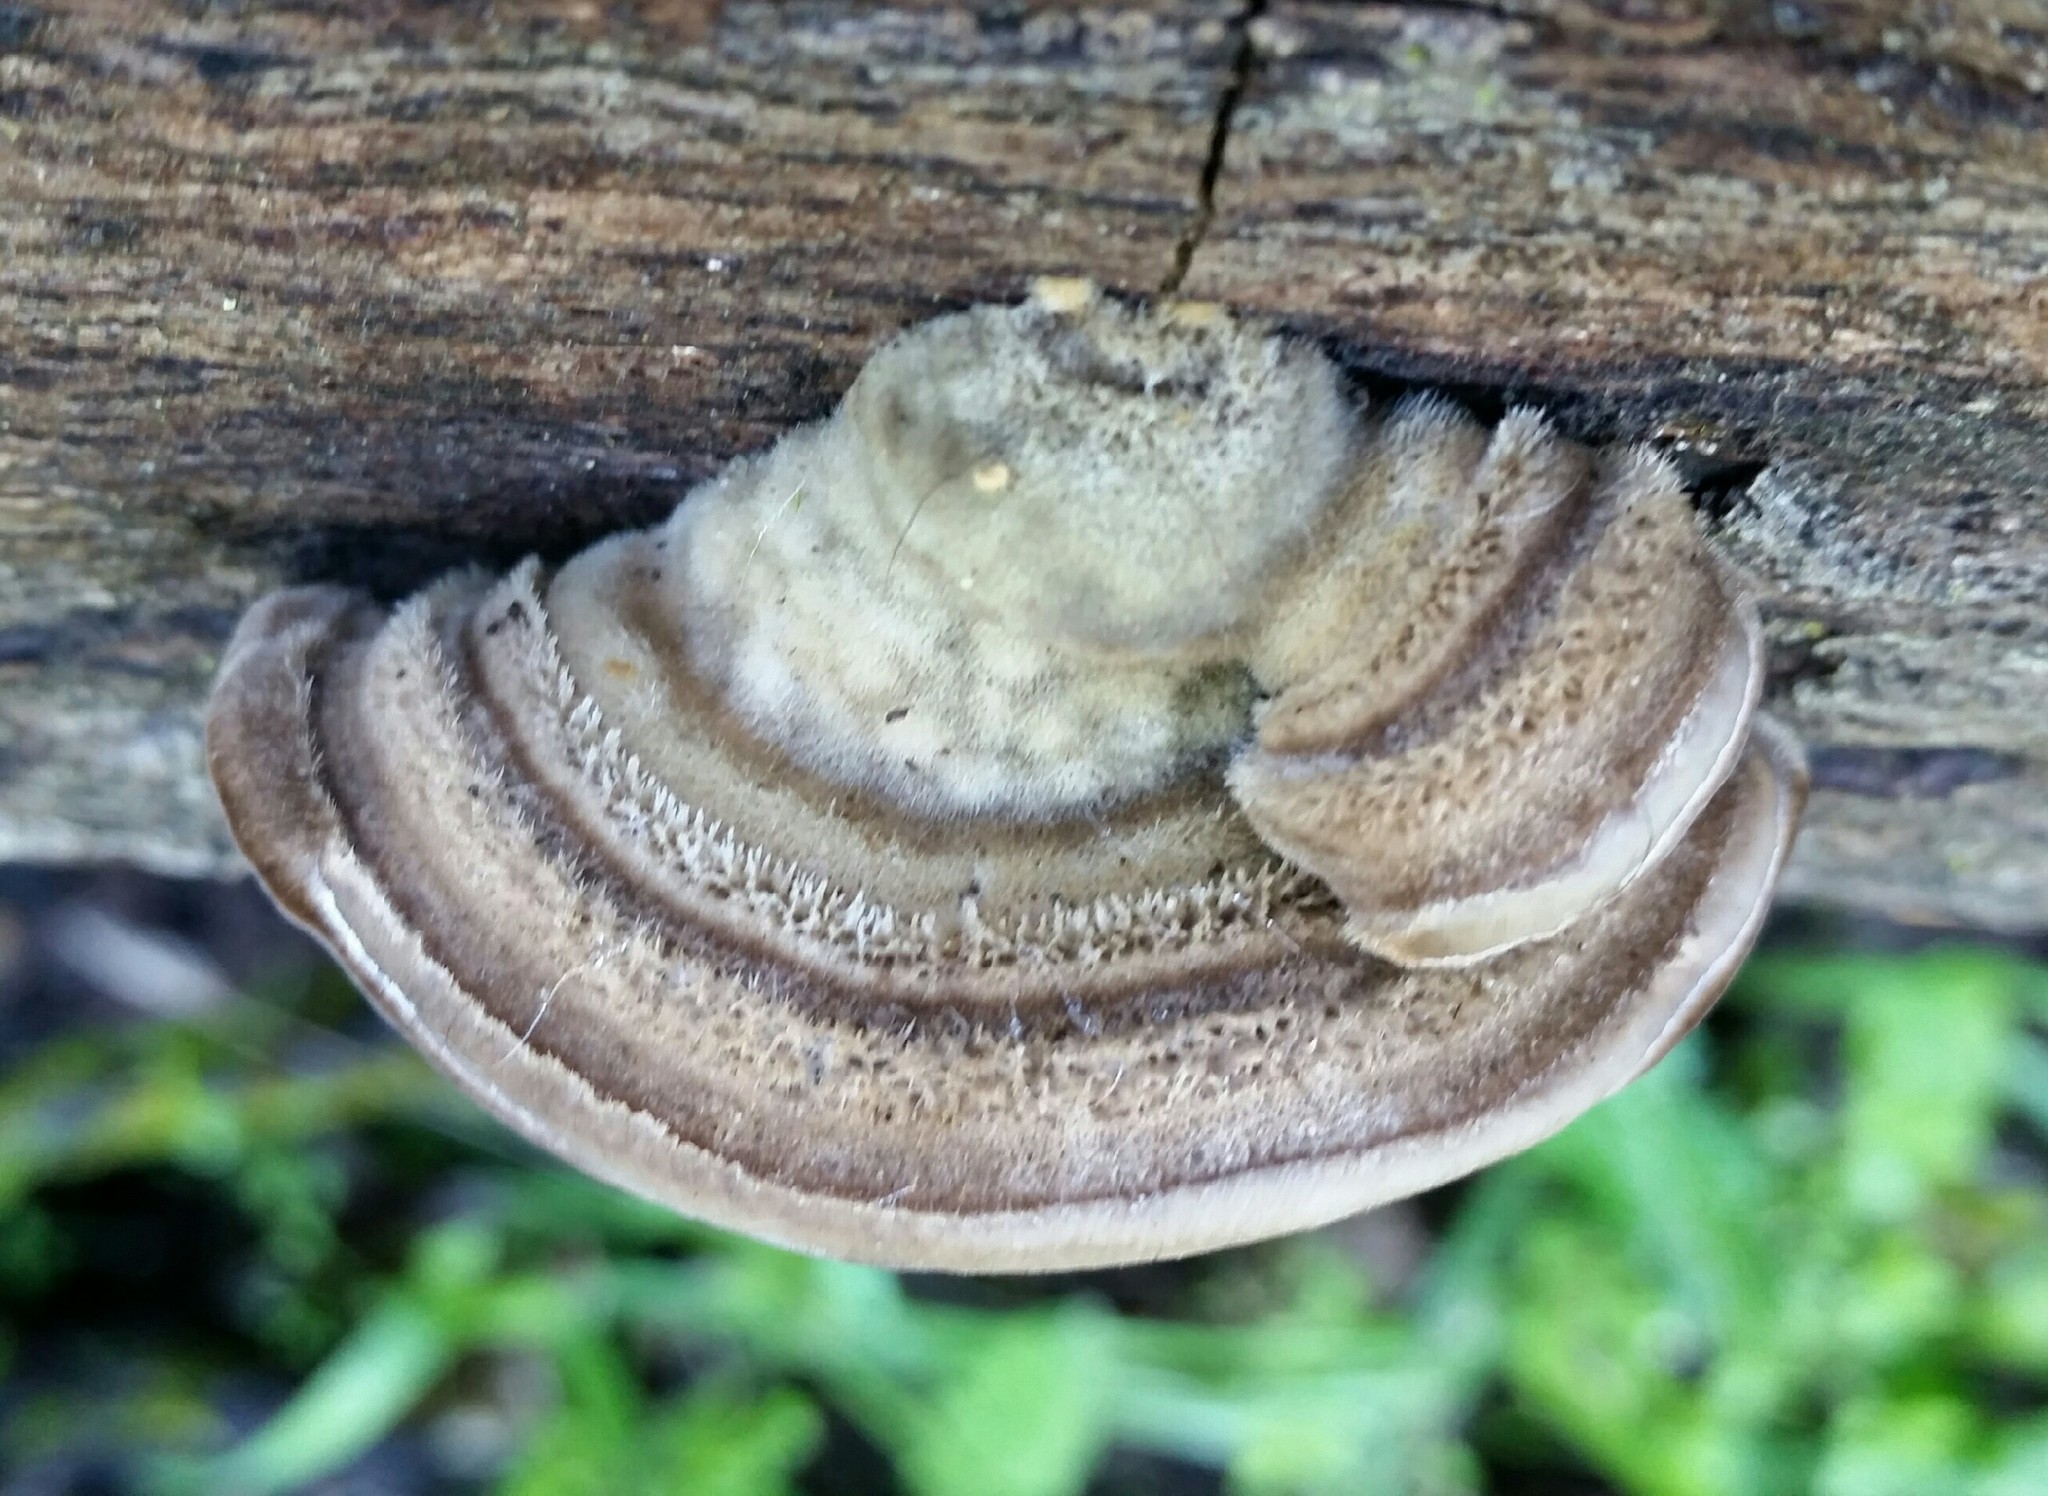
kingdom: Fungi
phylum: Basidiomycota
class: Agaricomycetes
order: Polyporales
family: Polyporaceae
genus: Lenzites
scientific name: Lenzites betulinus
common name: Birch mazegill
